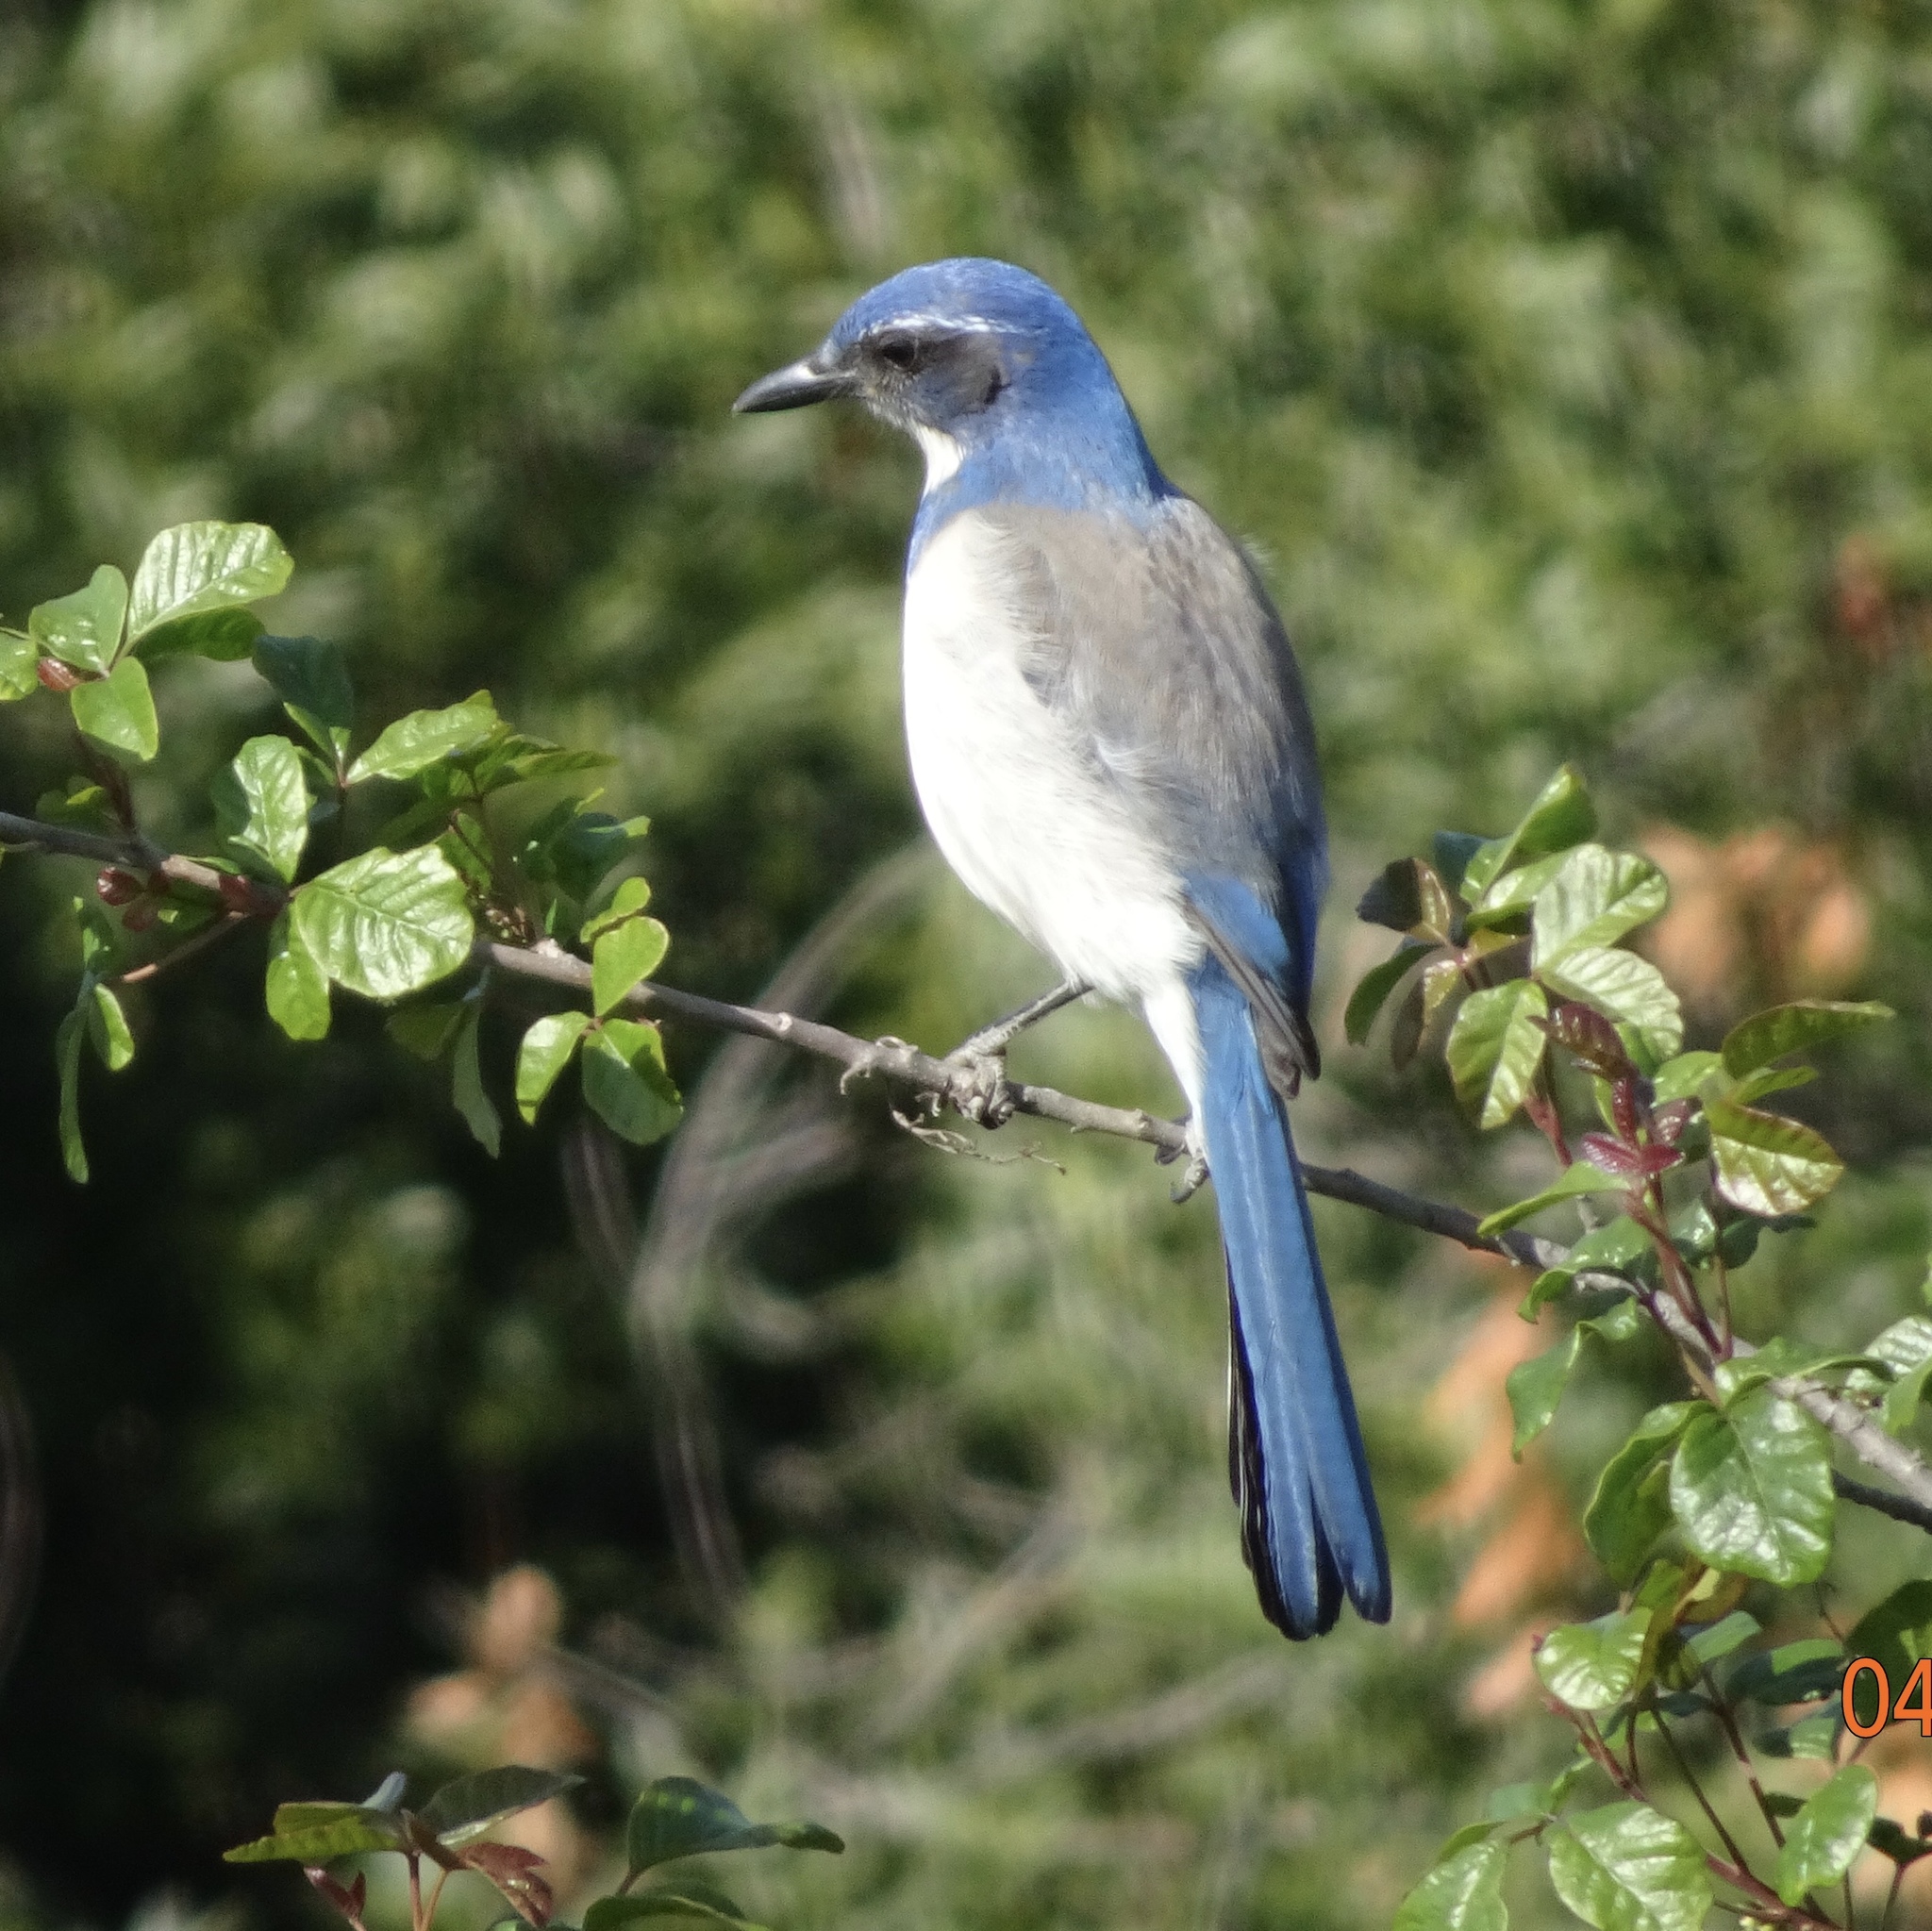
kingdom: Animalia
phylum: Chordata
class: Aves
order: Passeriformes
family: Corvidae
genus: Aphelocoma
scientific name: Aphelocoma californica
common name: California scrub-jay
